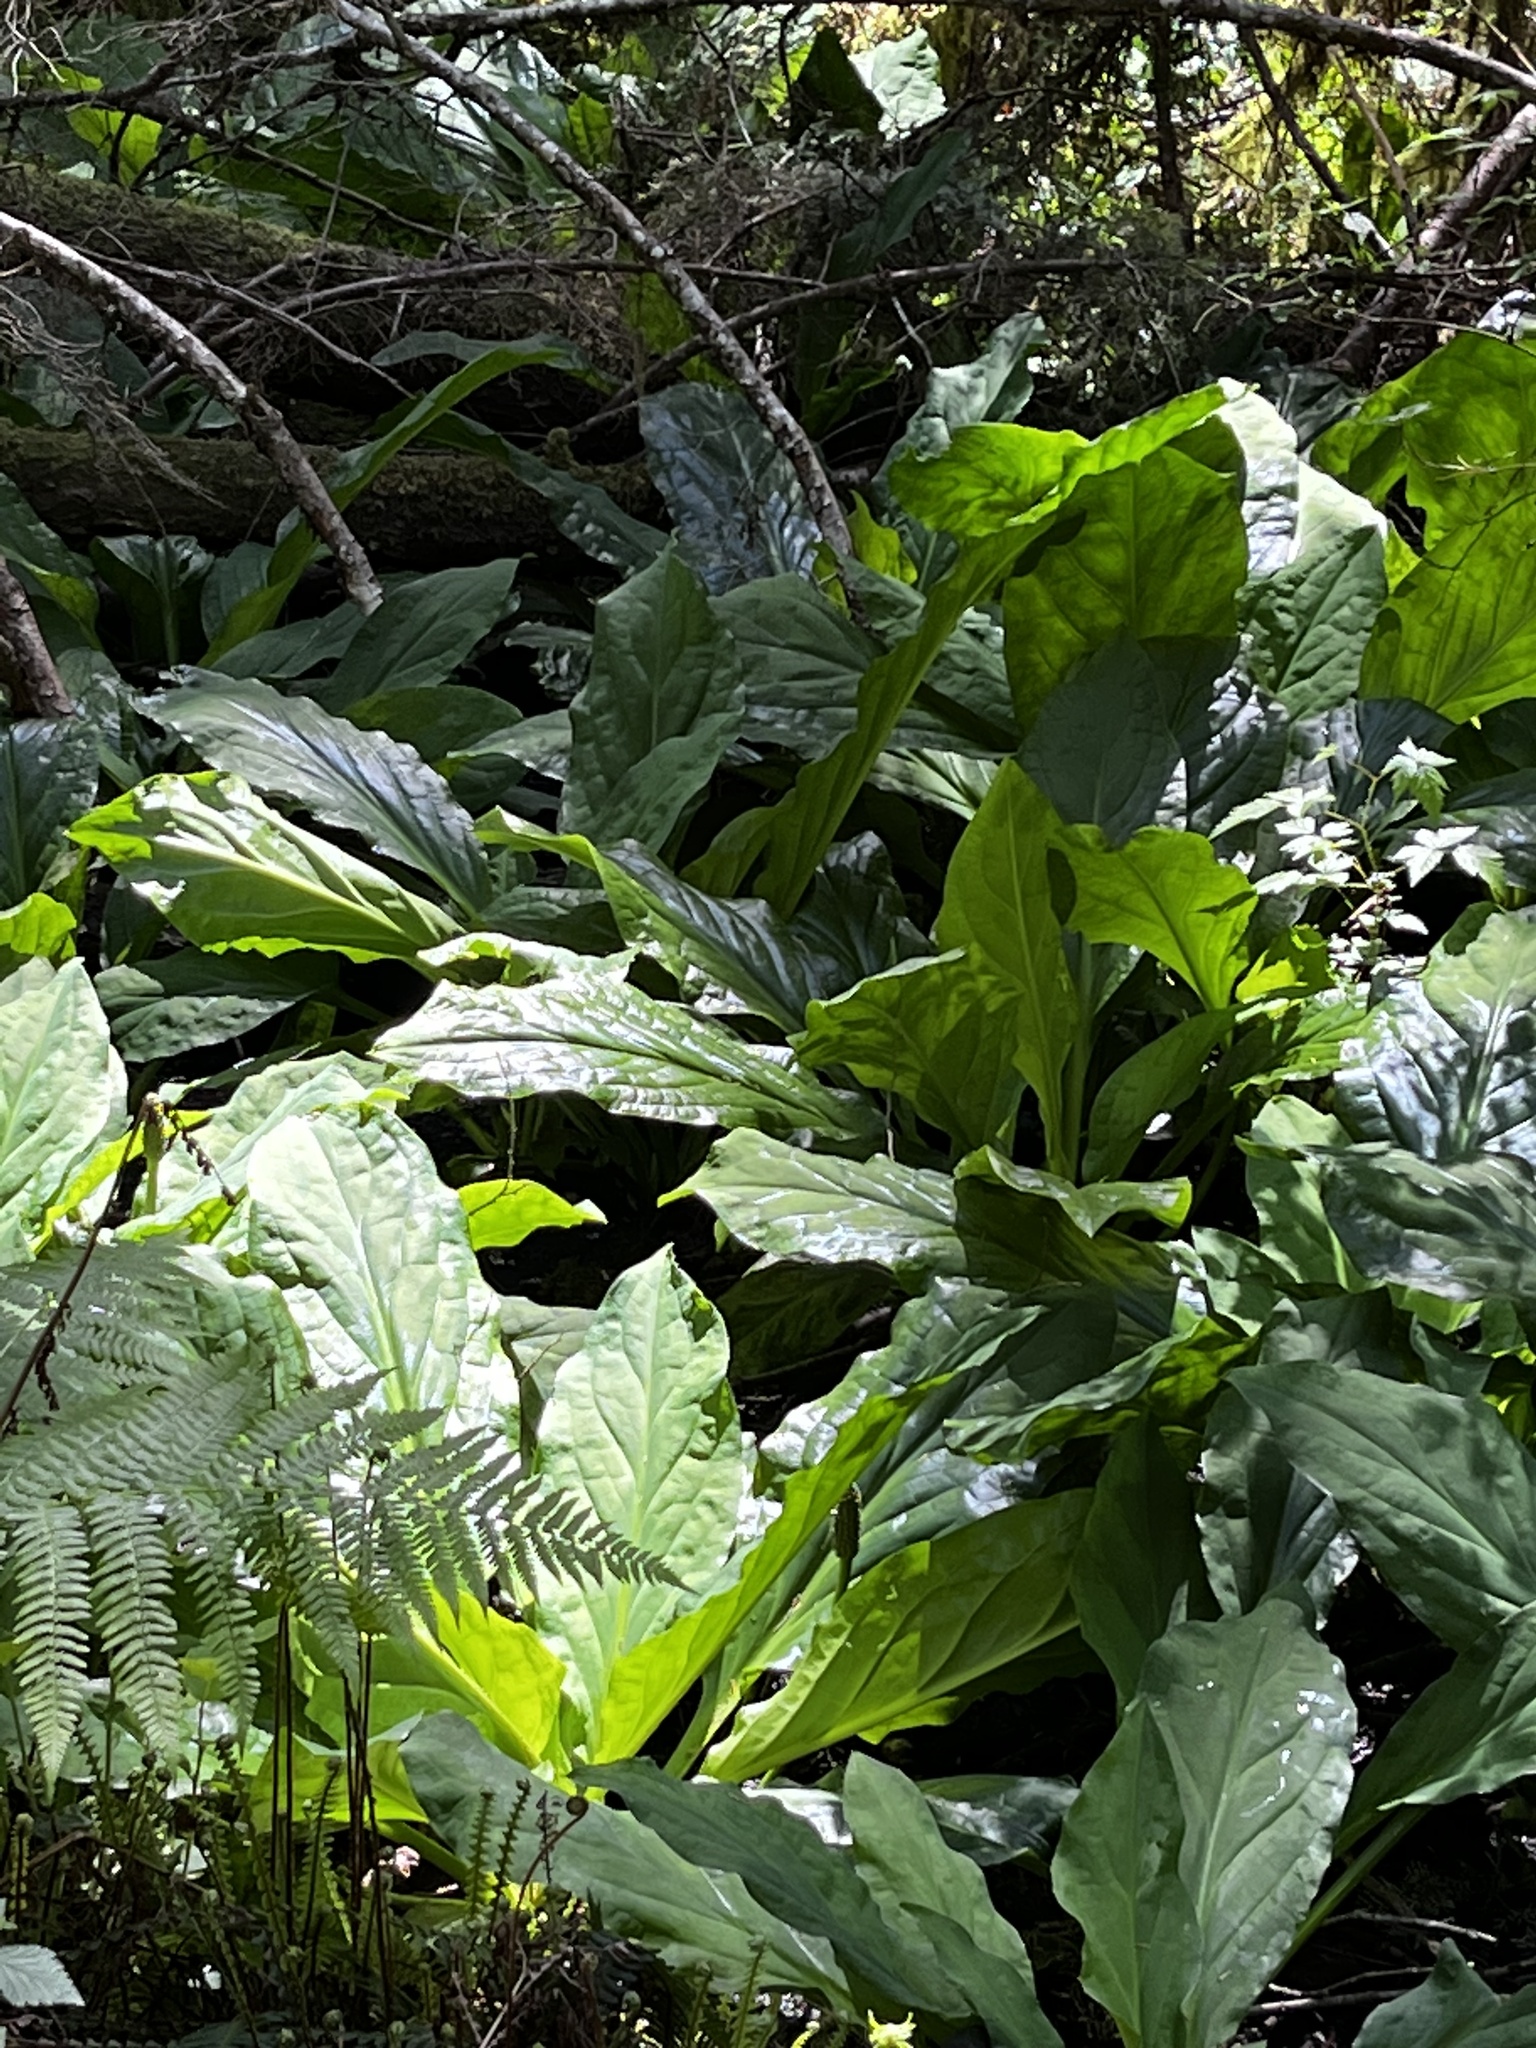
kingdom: Plantae
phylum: Tracheophyta
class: Liliopsida
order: Alismatales
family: Araceae
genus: Lysichiton
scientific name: Lysichiton americanus
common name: American skunk cabbage
